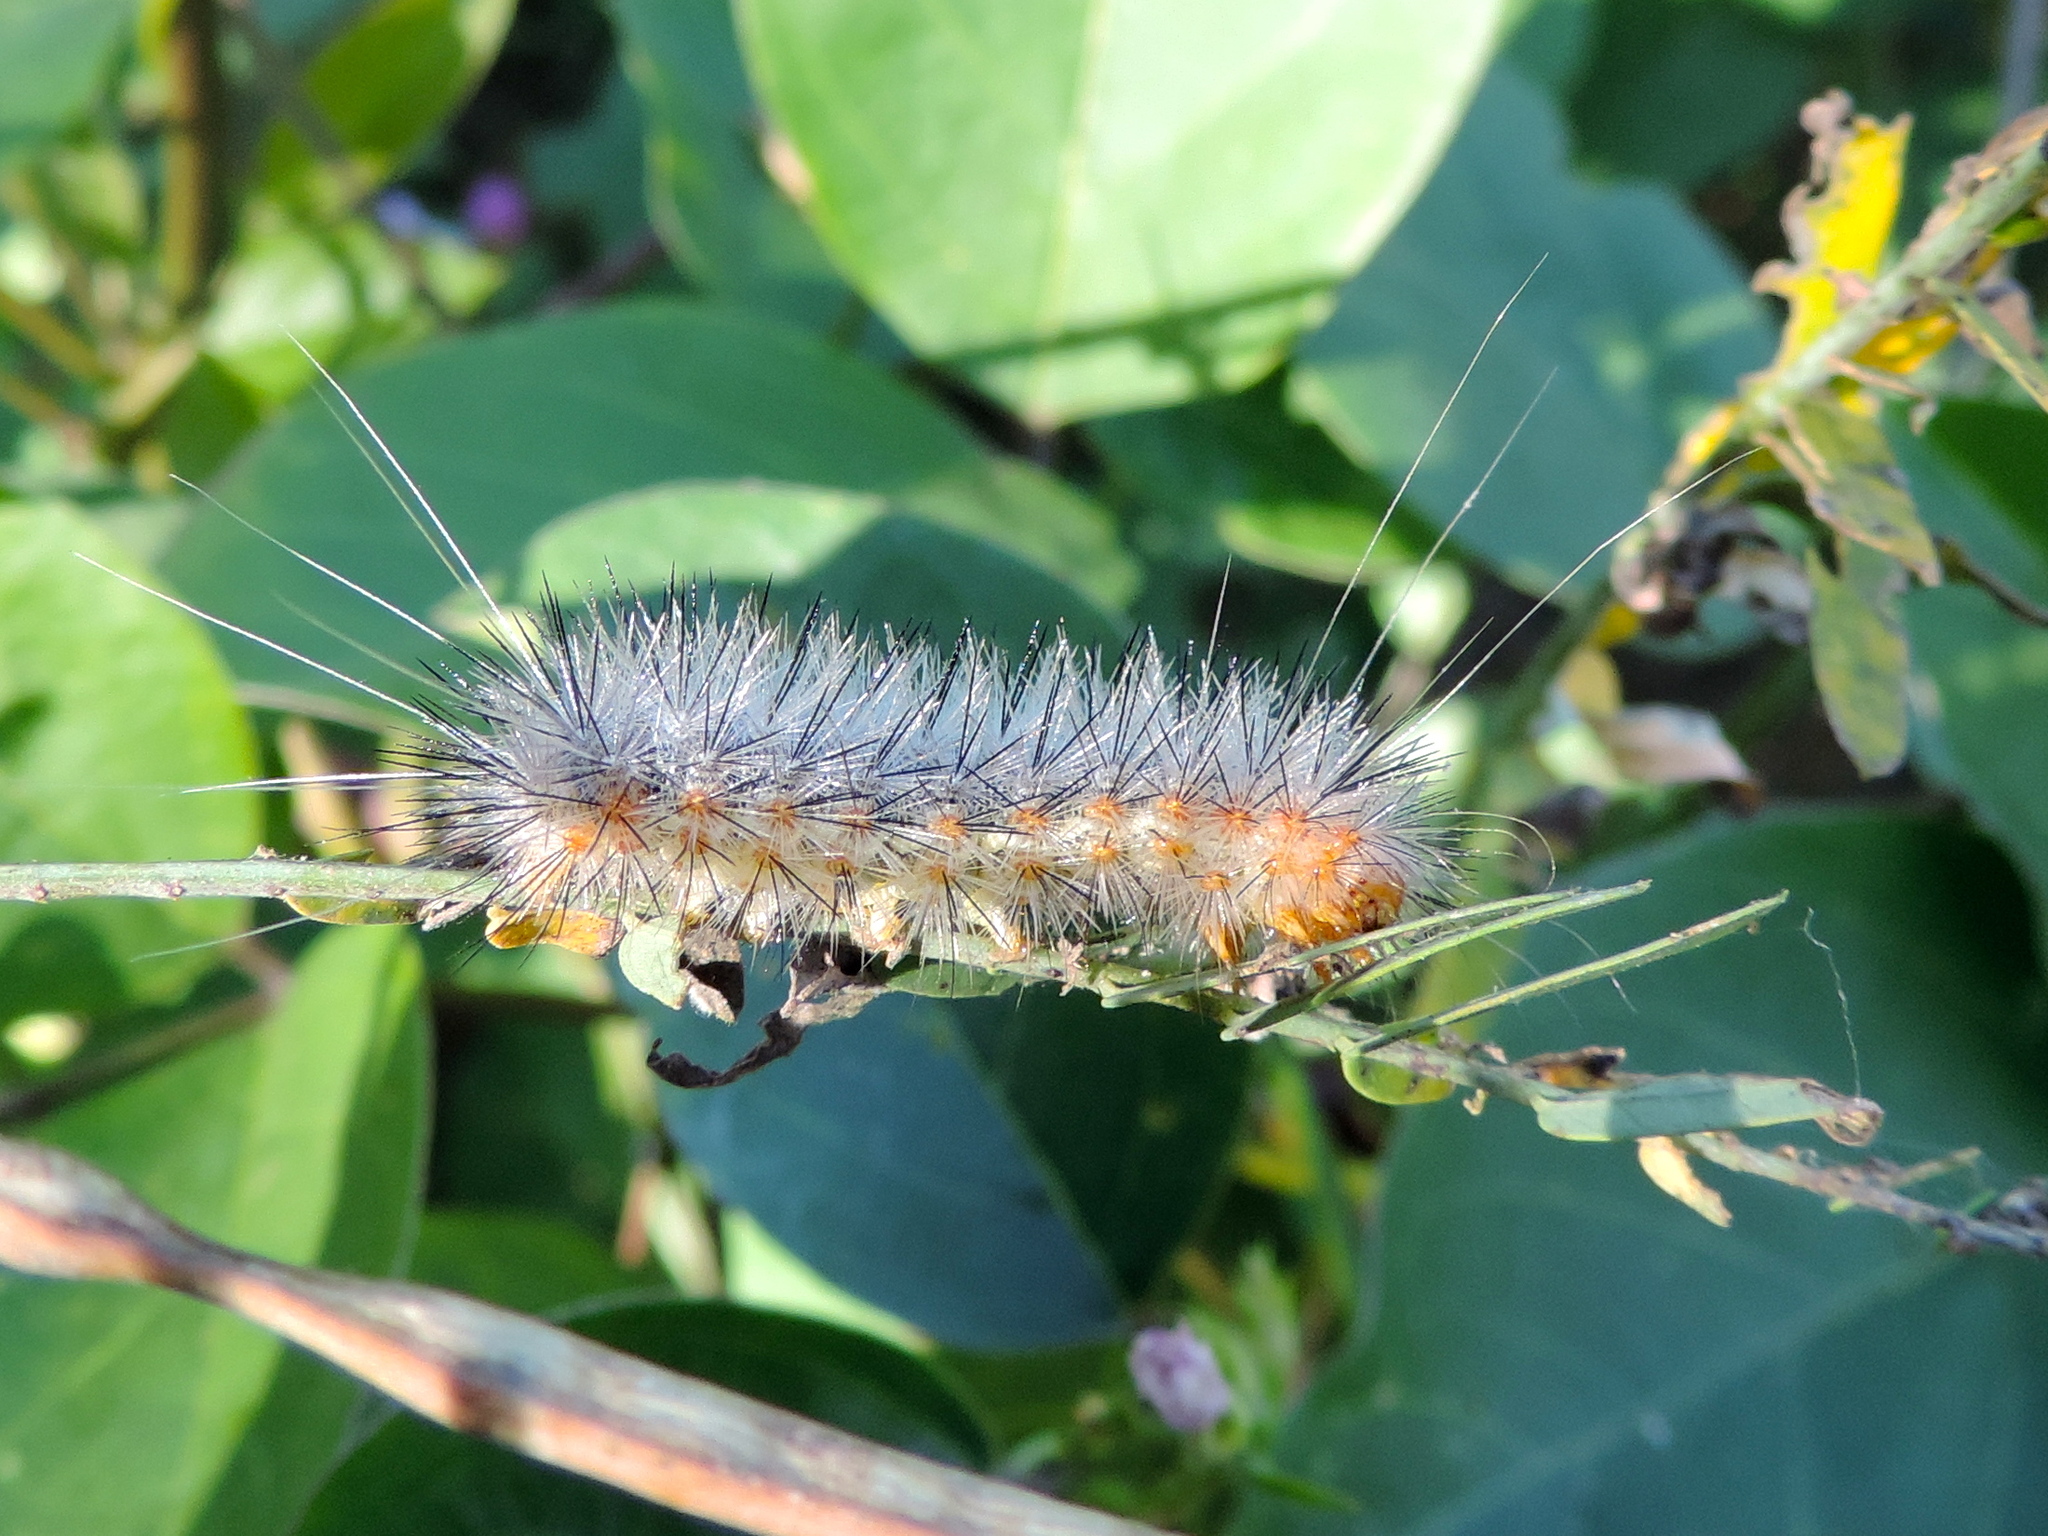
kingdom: Animalia
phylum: Arthropoda
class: Insecta
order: Lepidoptera
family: Erebidae
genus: Spilosoma
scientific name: Spilosoma
